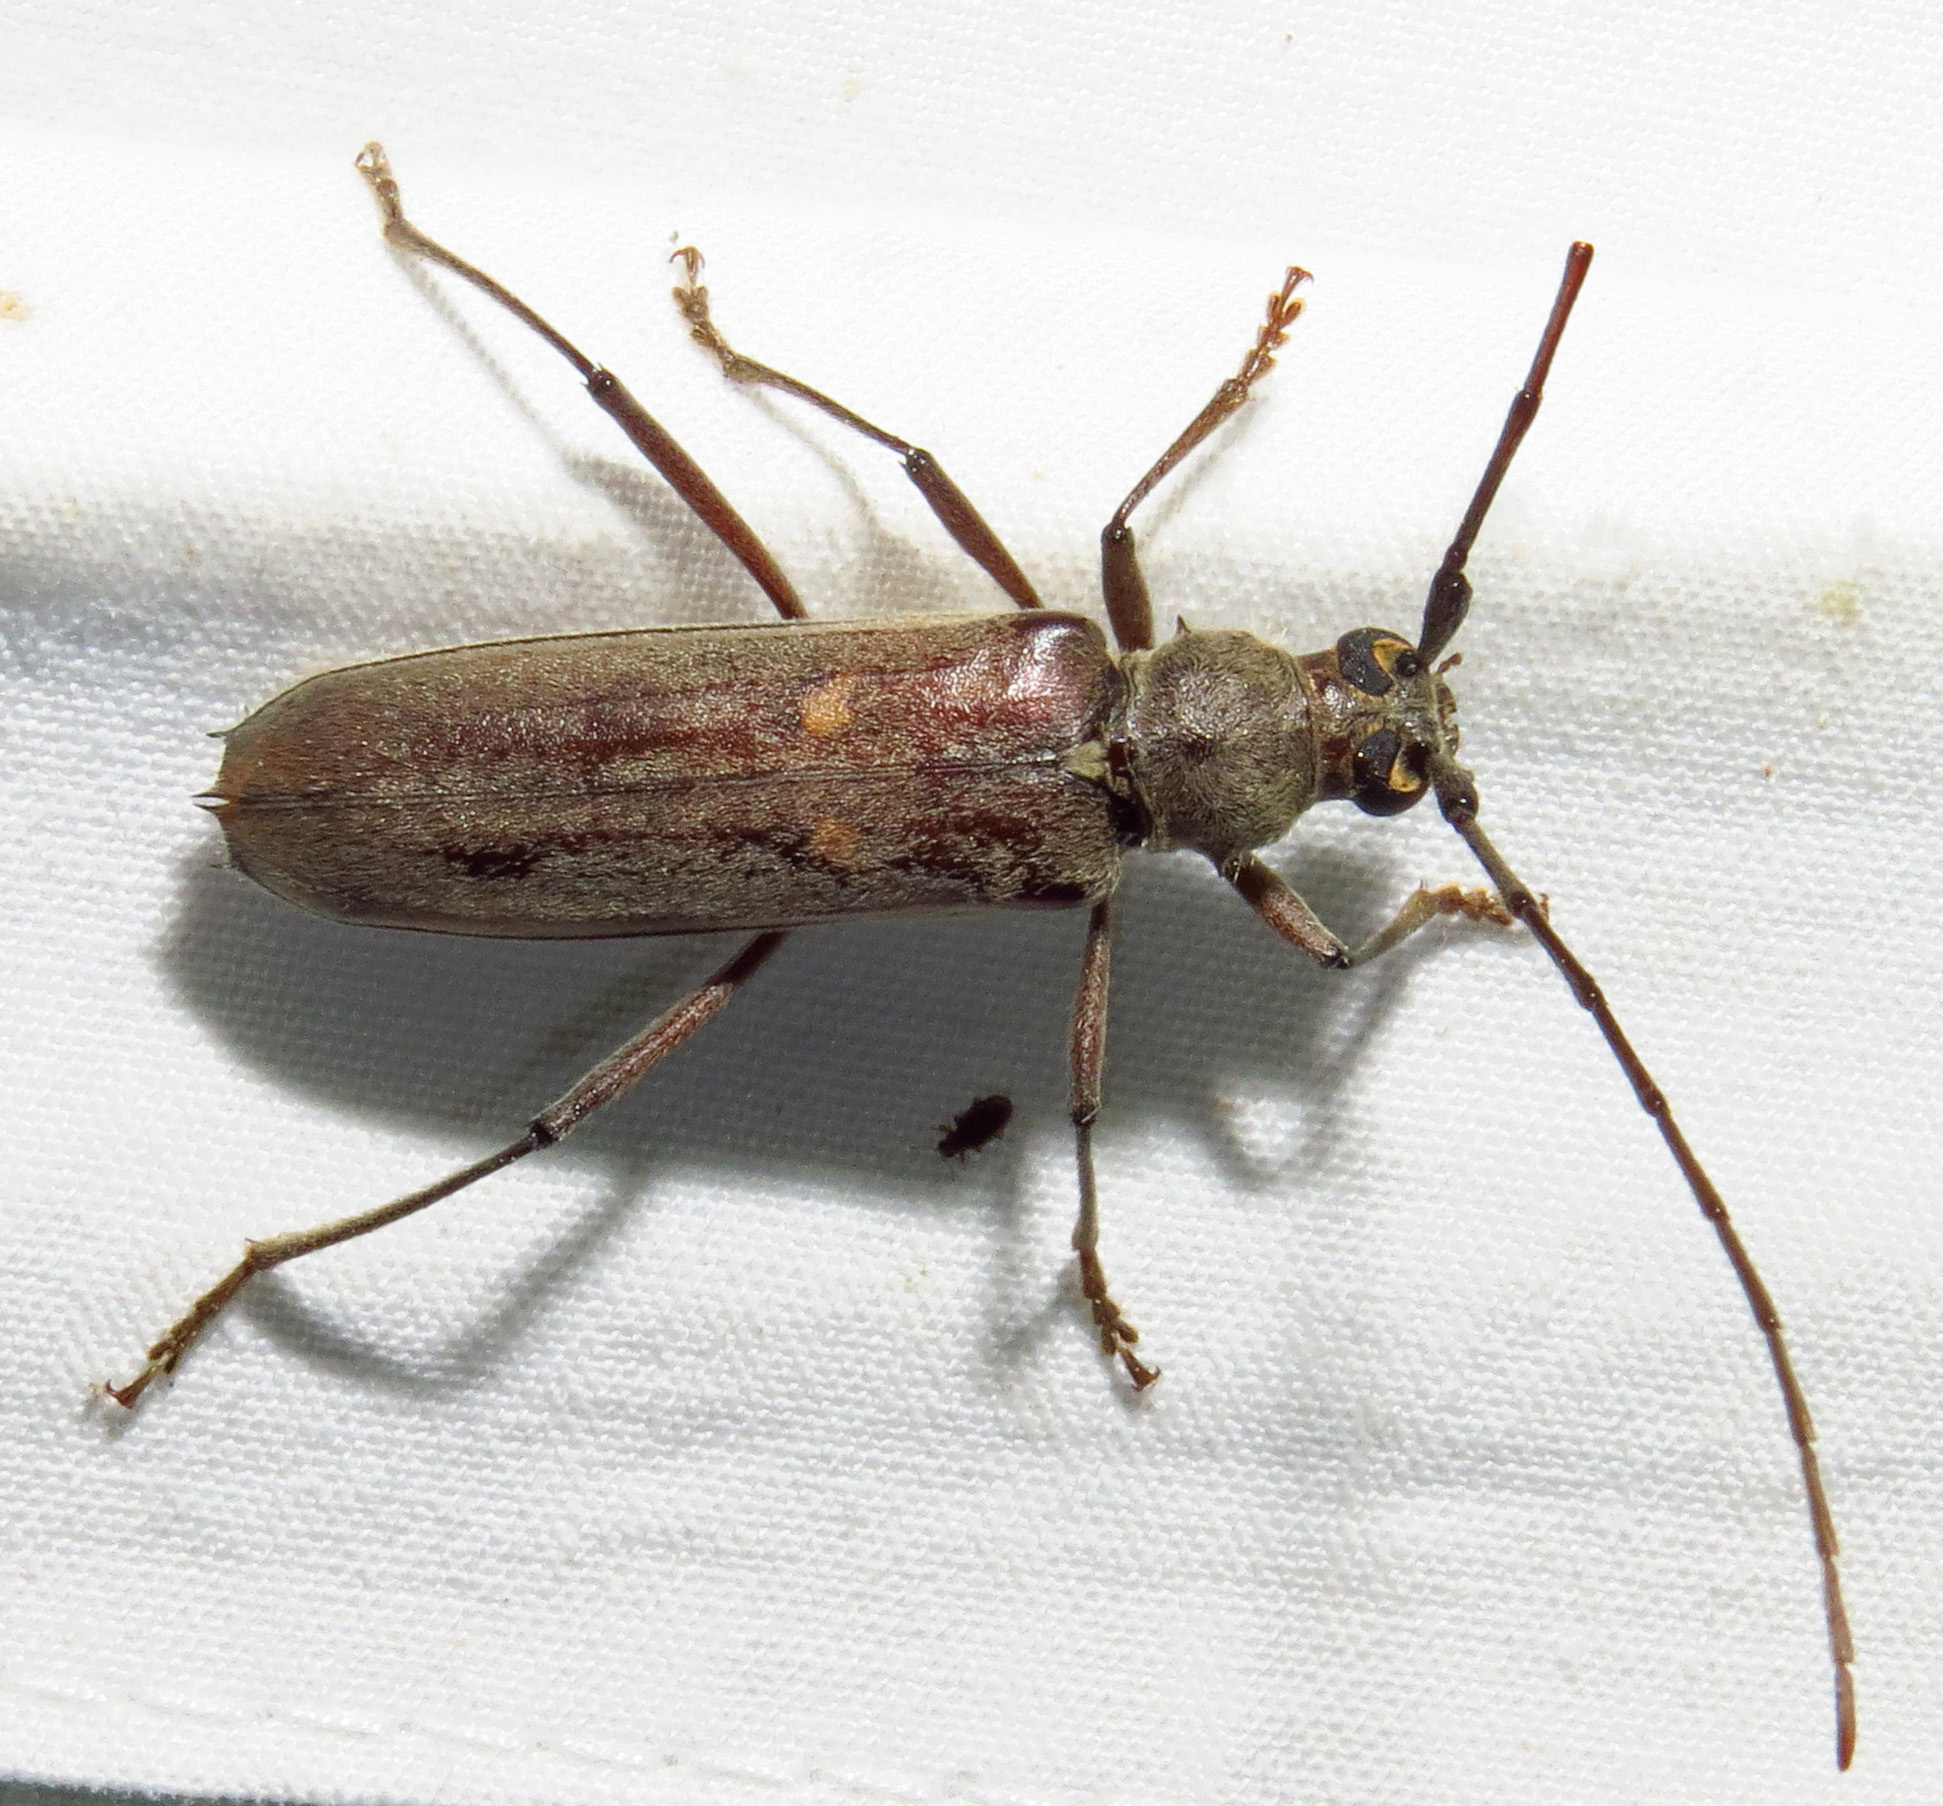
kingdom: Animalia
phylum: Arthropoda
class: Insecta
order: Coleoptera
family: Cerambycidae
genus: Knulliana
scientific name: Knulliana cincta
